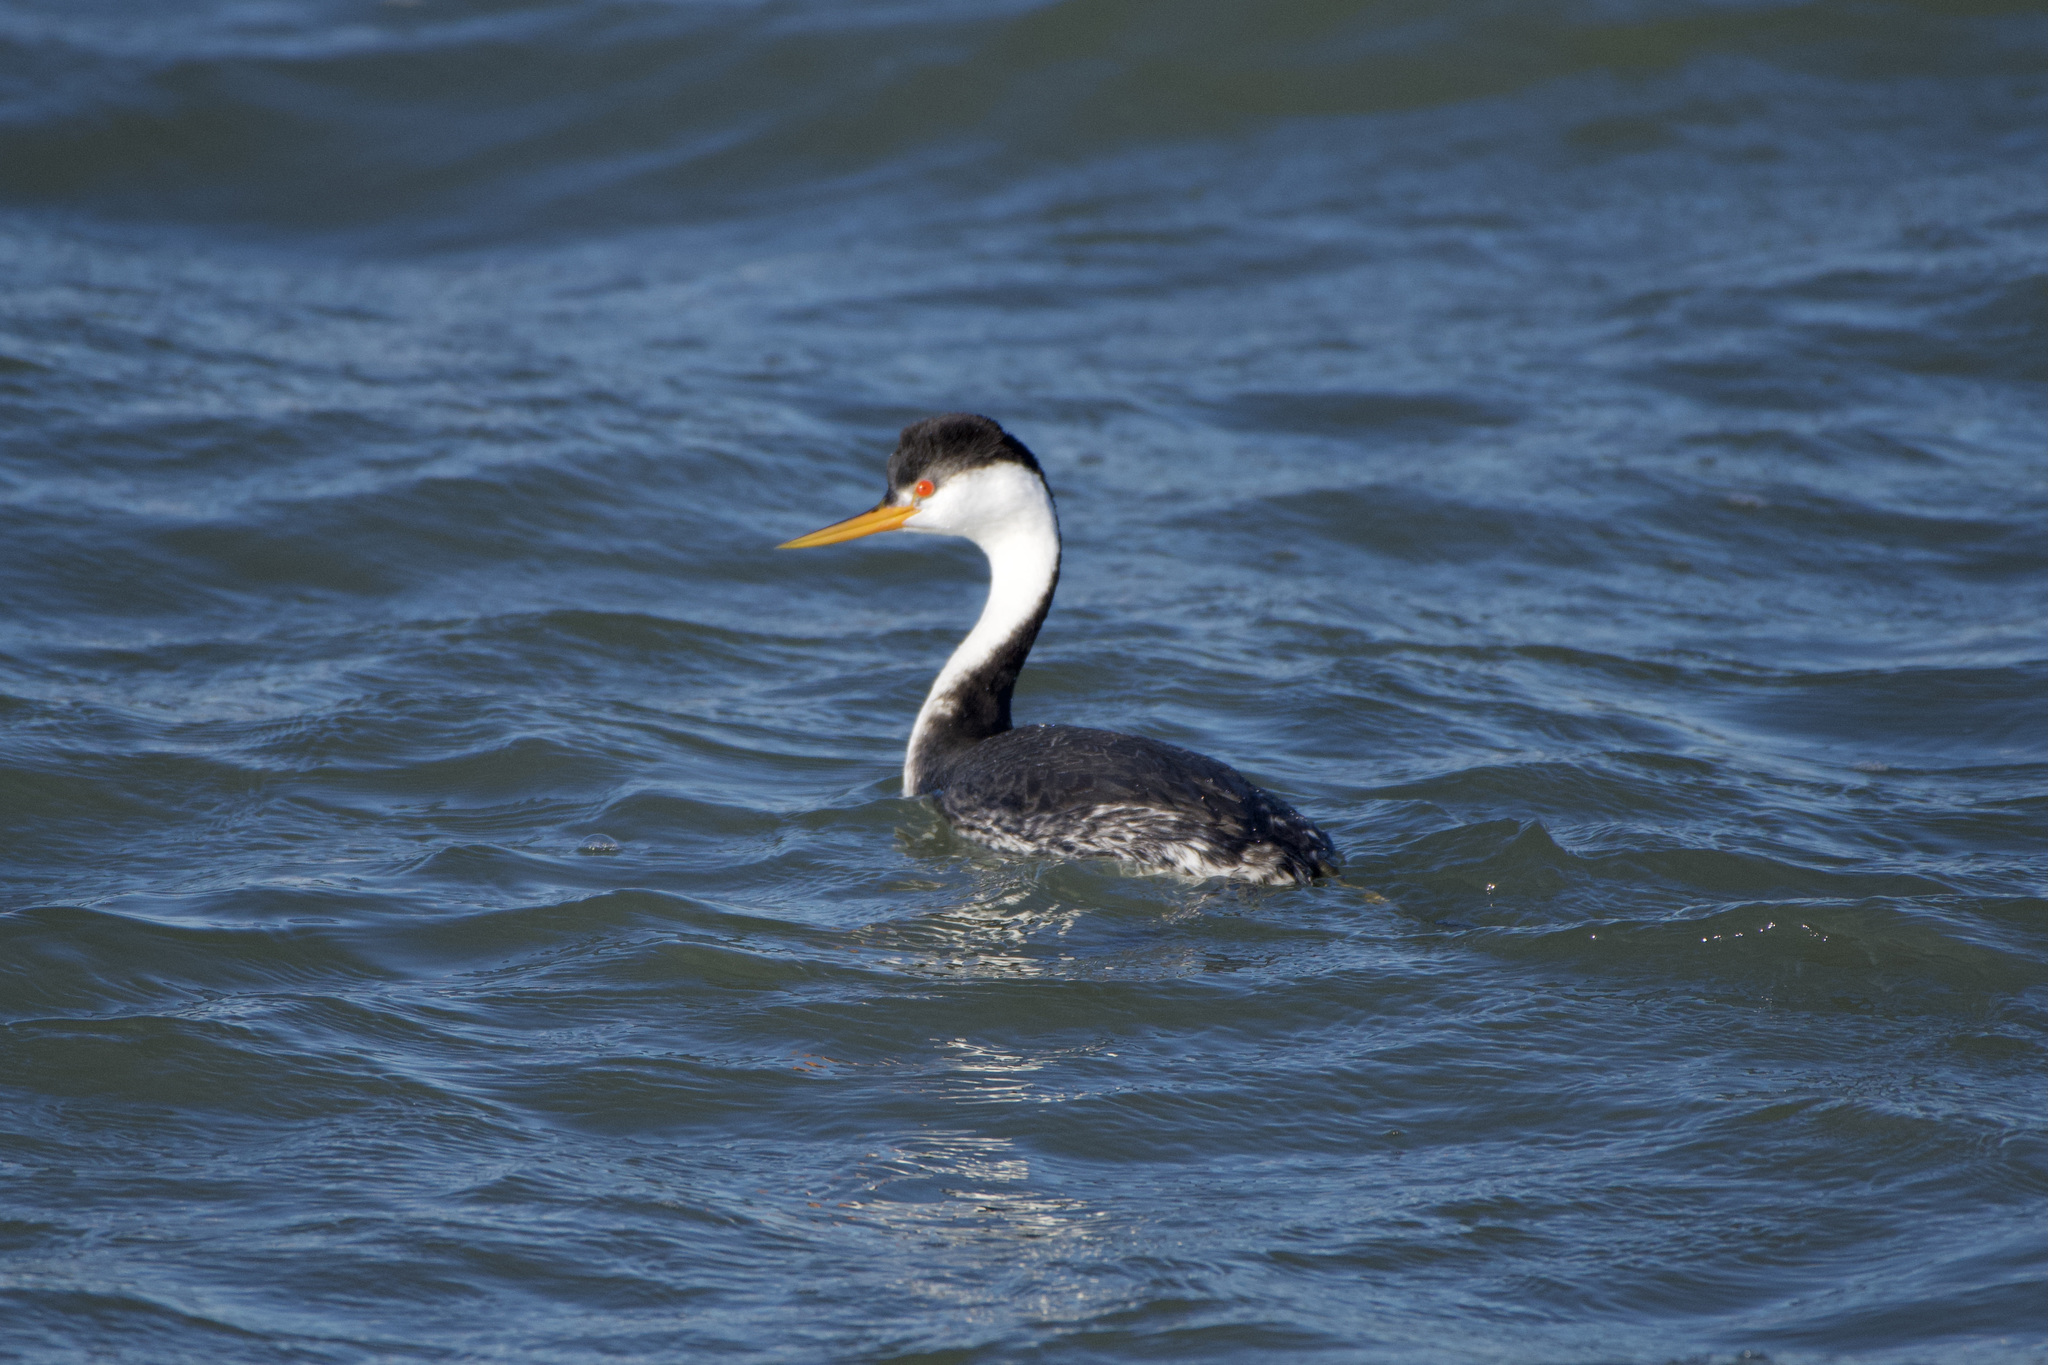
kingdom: Animalia
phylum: Chordata
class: Aves
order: Podicipediformes
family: Podicipedidae
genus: Aechmophorus
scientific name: Aechmophorus clarkii
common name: Clark's grebe
